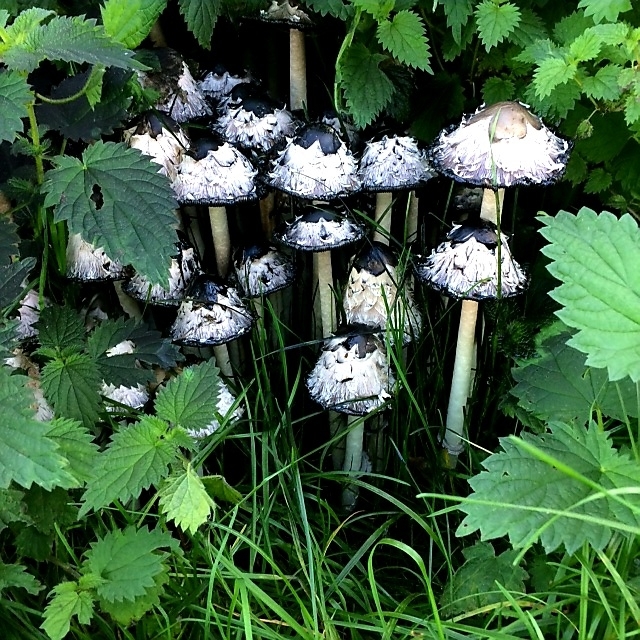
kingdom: Fungi
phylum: Basidiomycota
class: Agaricomycetes
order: Agaricales
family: Agaricaceae
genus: Coprinus
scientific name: Coprinus comatus
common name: Lawyer's wig
